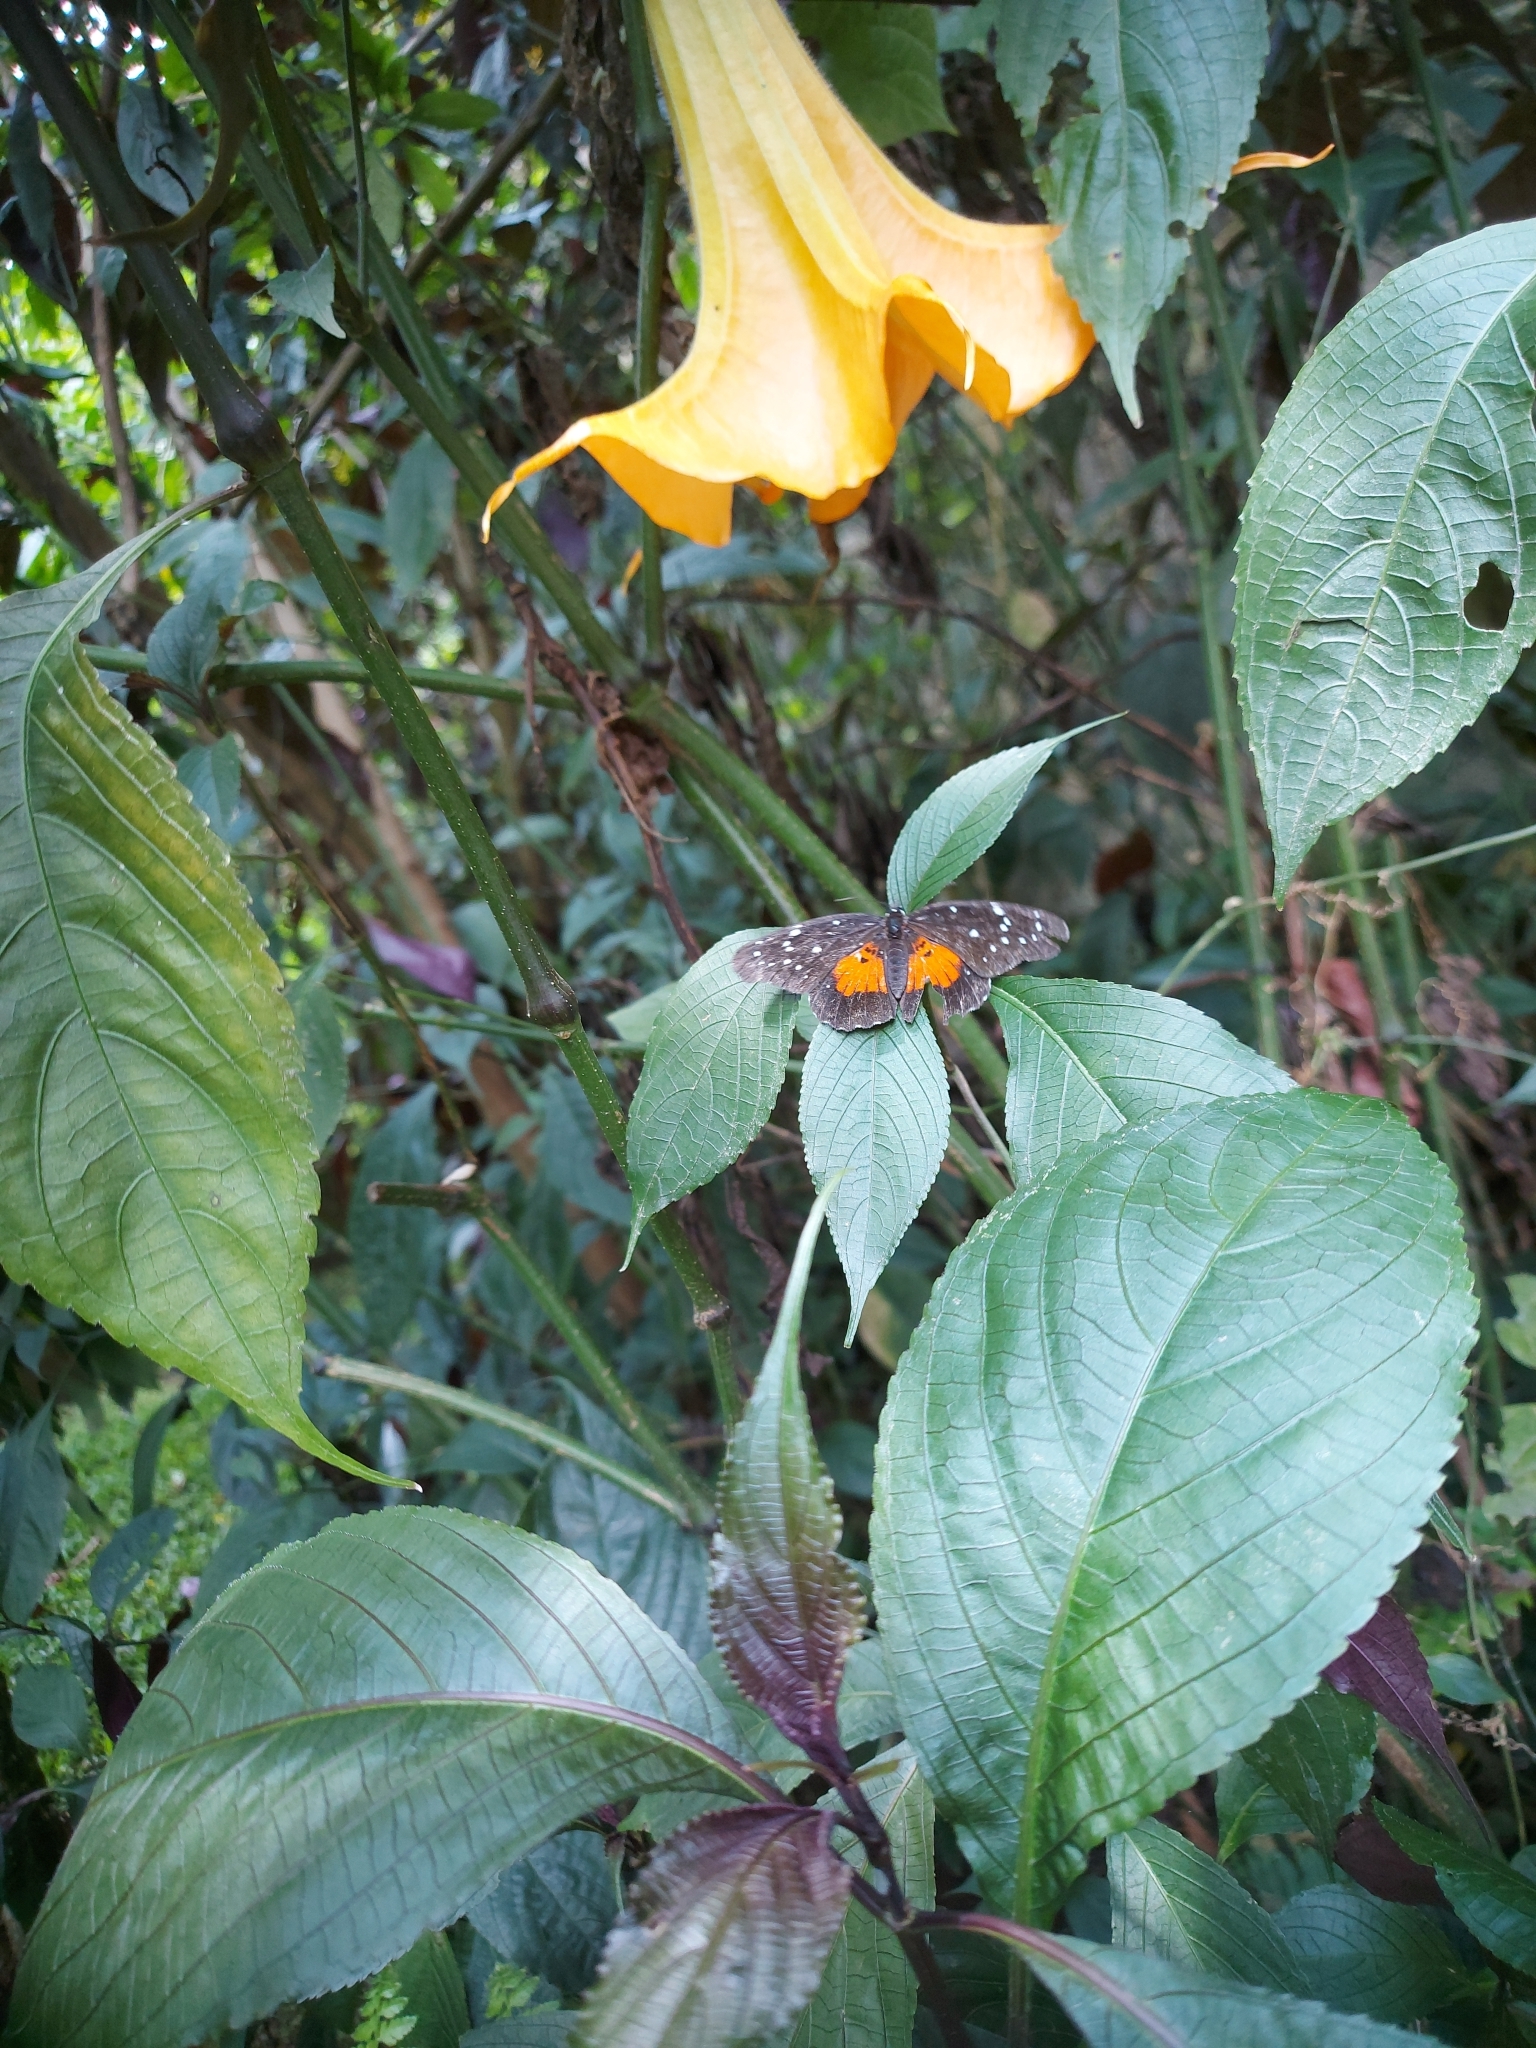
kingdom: Animalia
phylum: Arthropoda
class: Insecta
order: Lepidoptera
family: Nymphalidae
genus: Chlosyne
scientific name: Chlosyne janais
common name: Crimson patch
